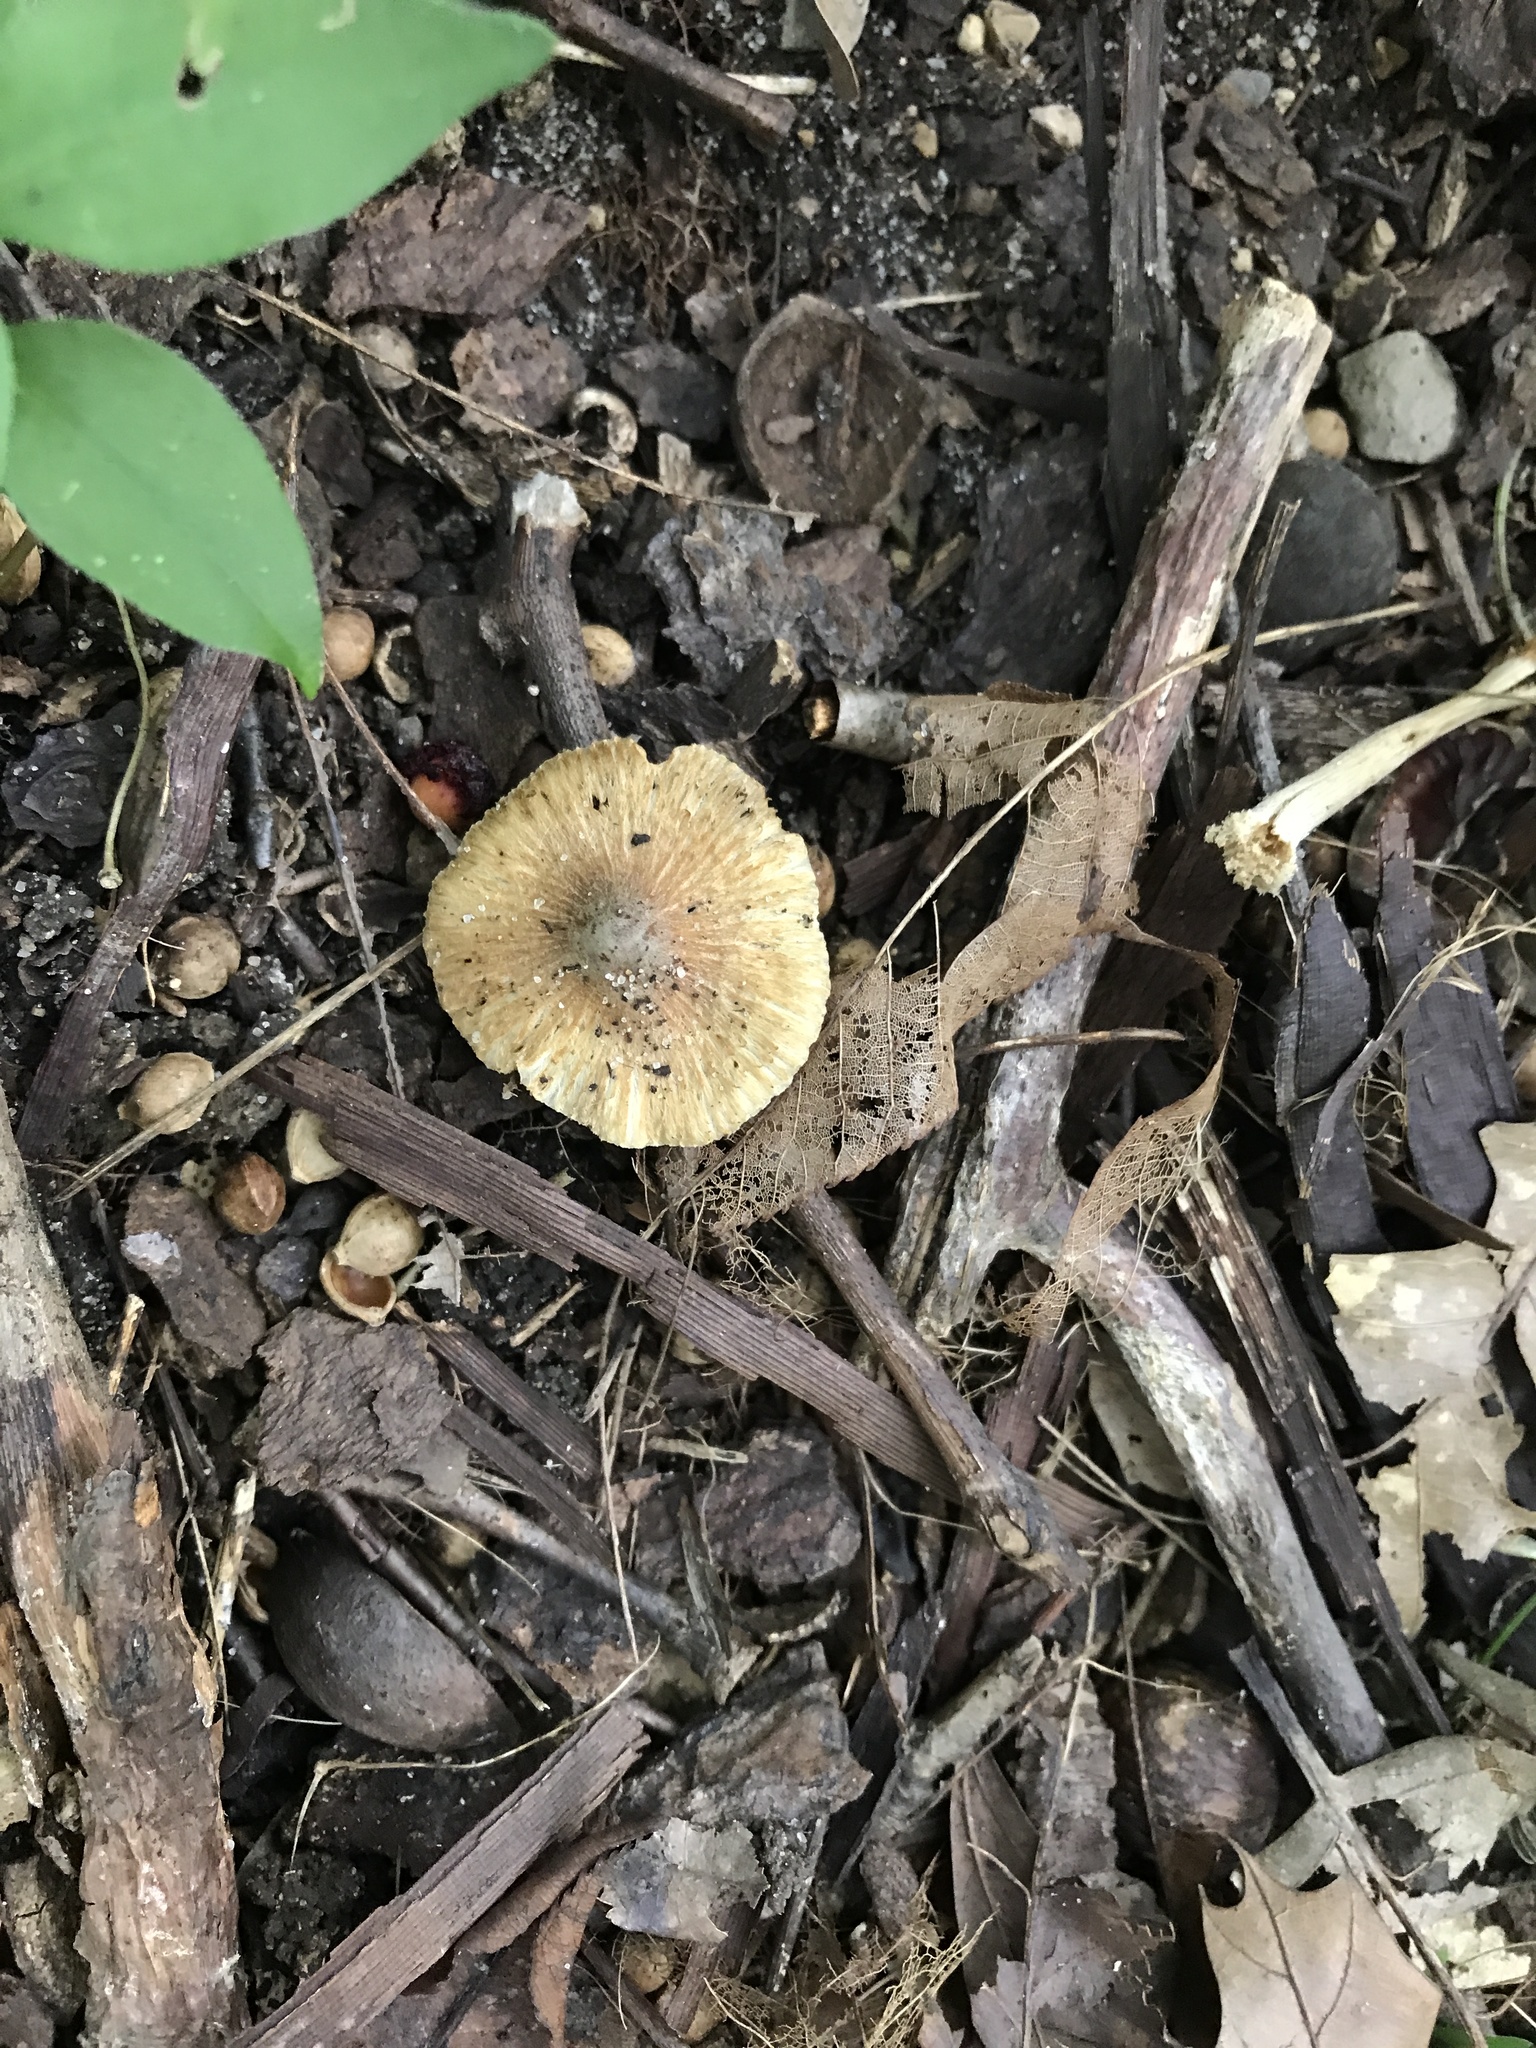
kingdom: Fungi
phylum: Basidiomycota
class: Agaricomycetes
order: Agaricales
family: Inocybaceae
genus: Inocybe
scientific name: Inocybe margaritispora
